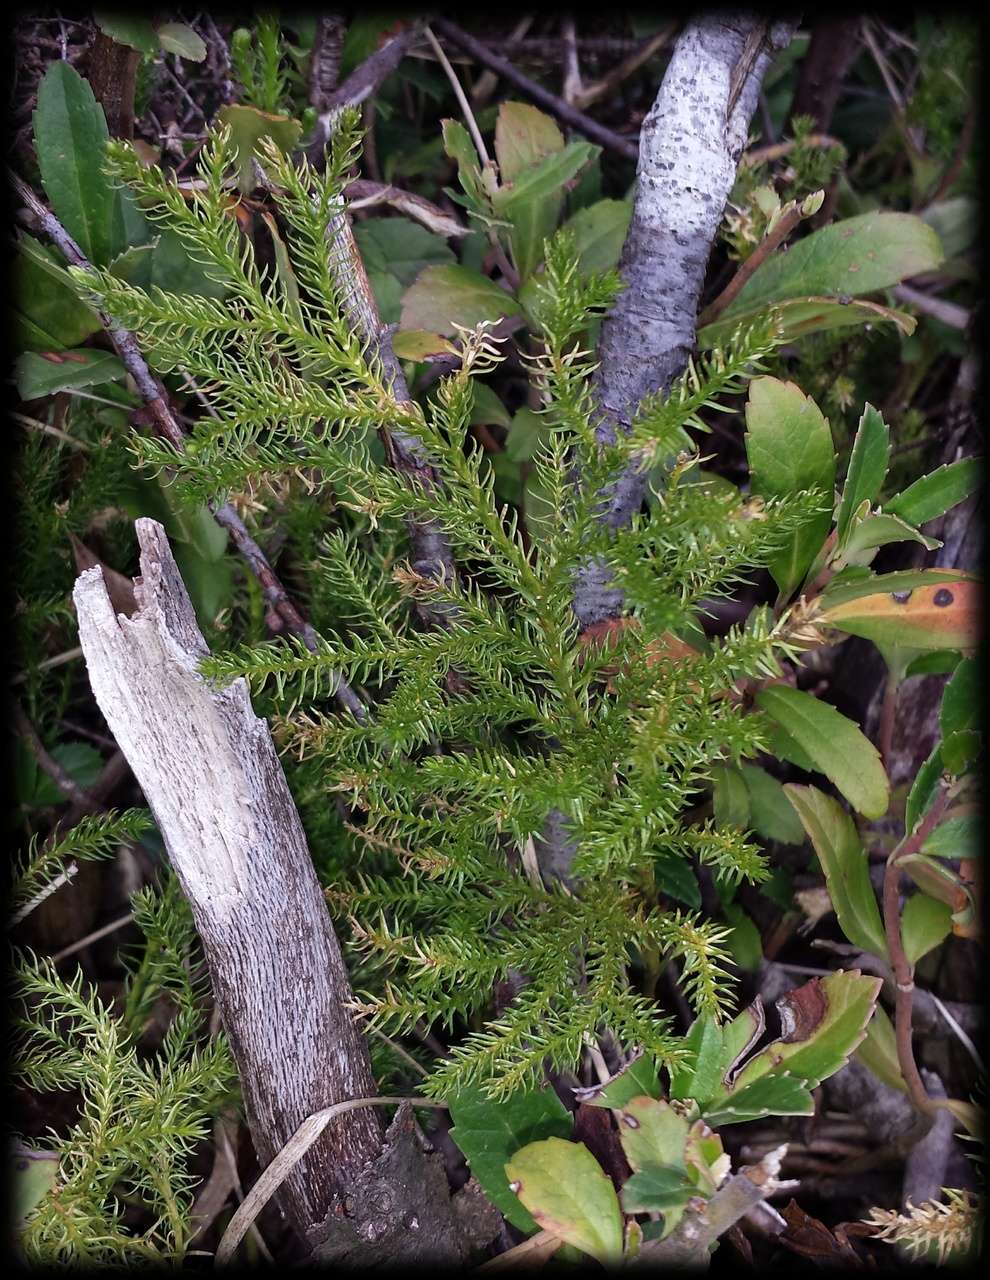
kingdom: Plantae
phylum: Tracheophyta
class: Lycopodiopsida
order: Lycopodiales
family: Lycopodiaceae
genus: Austrolycopodium
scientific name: Austrolycopodium fastigiatum
